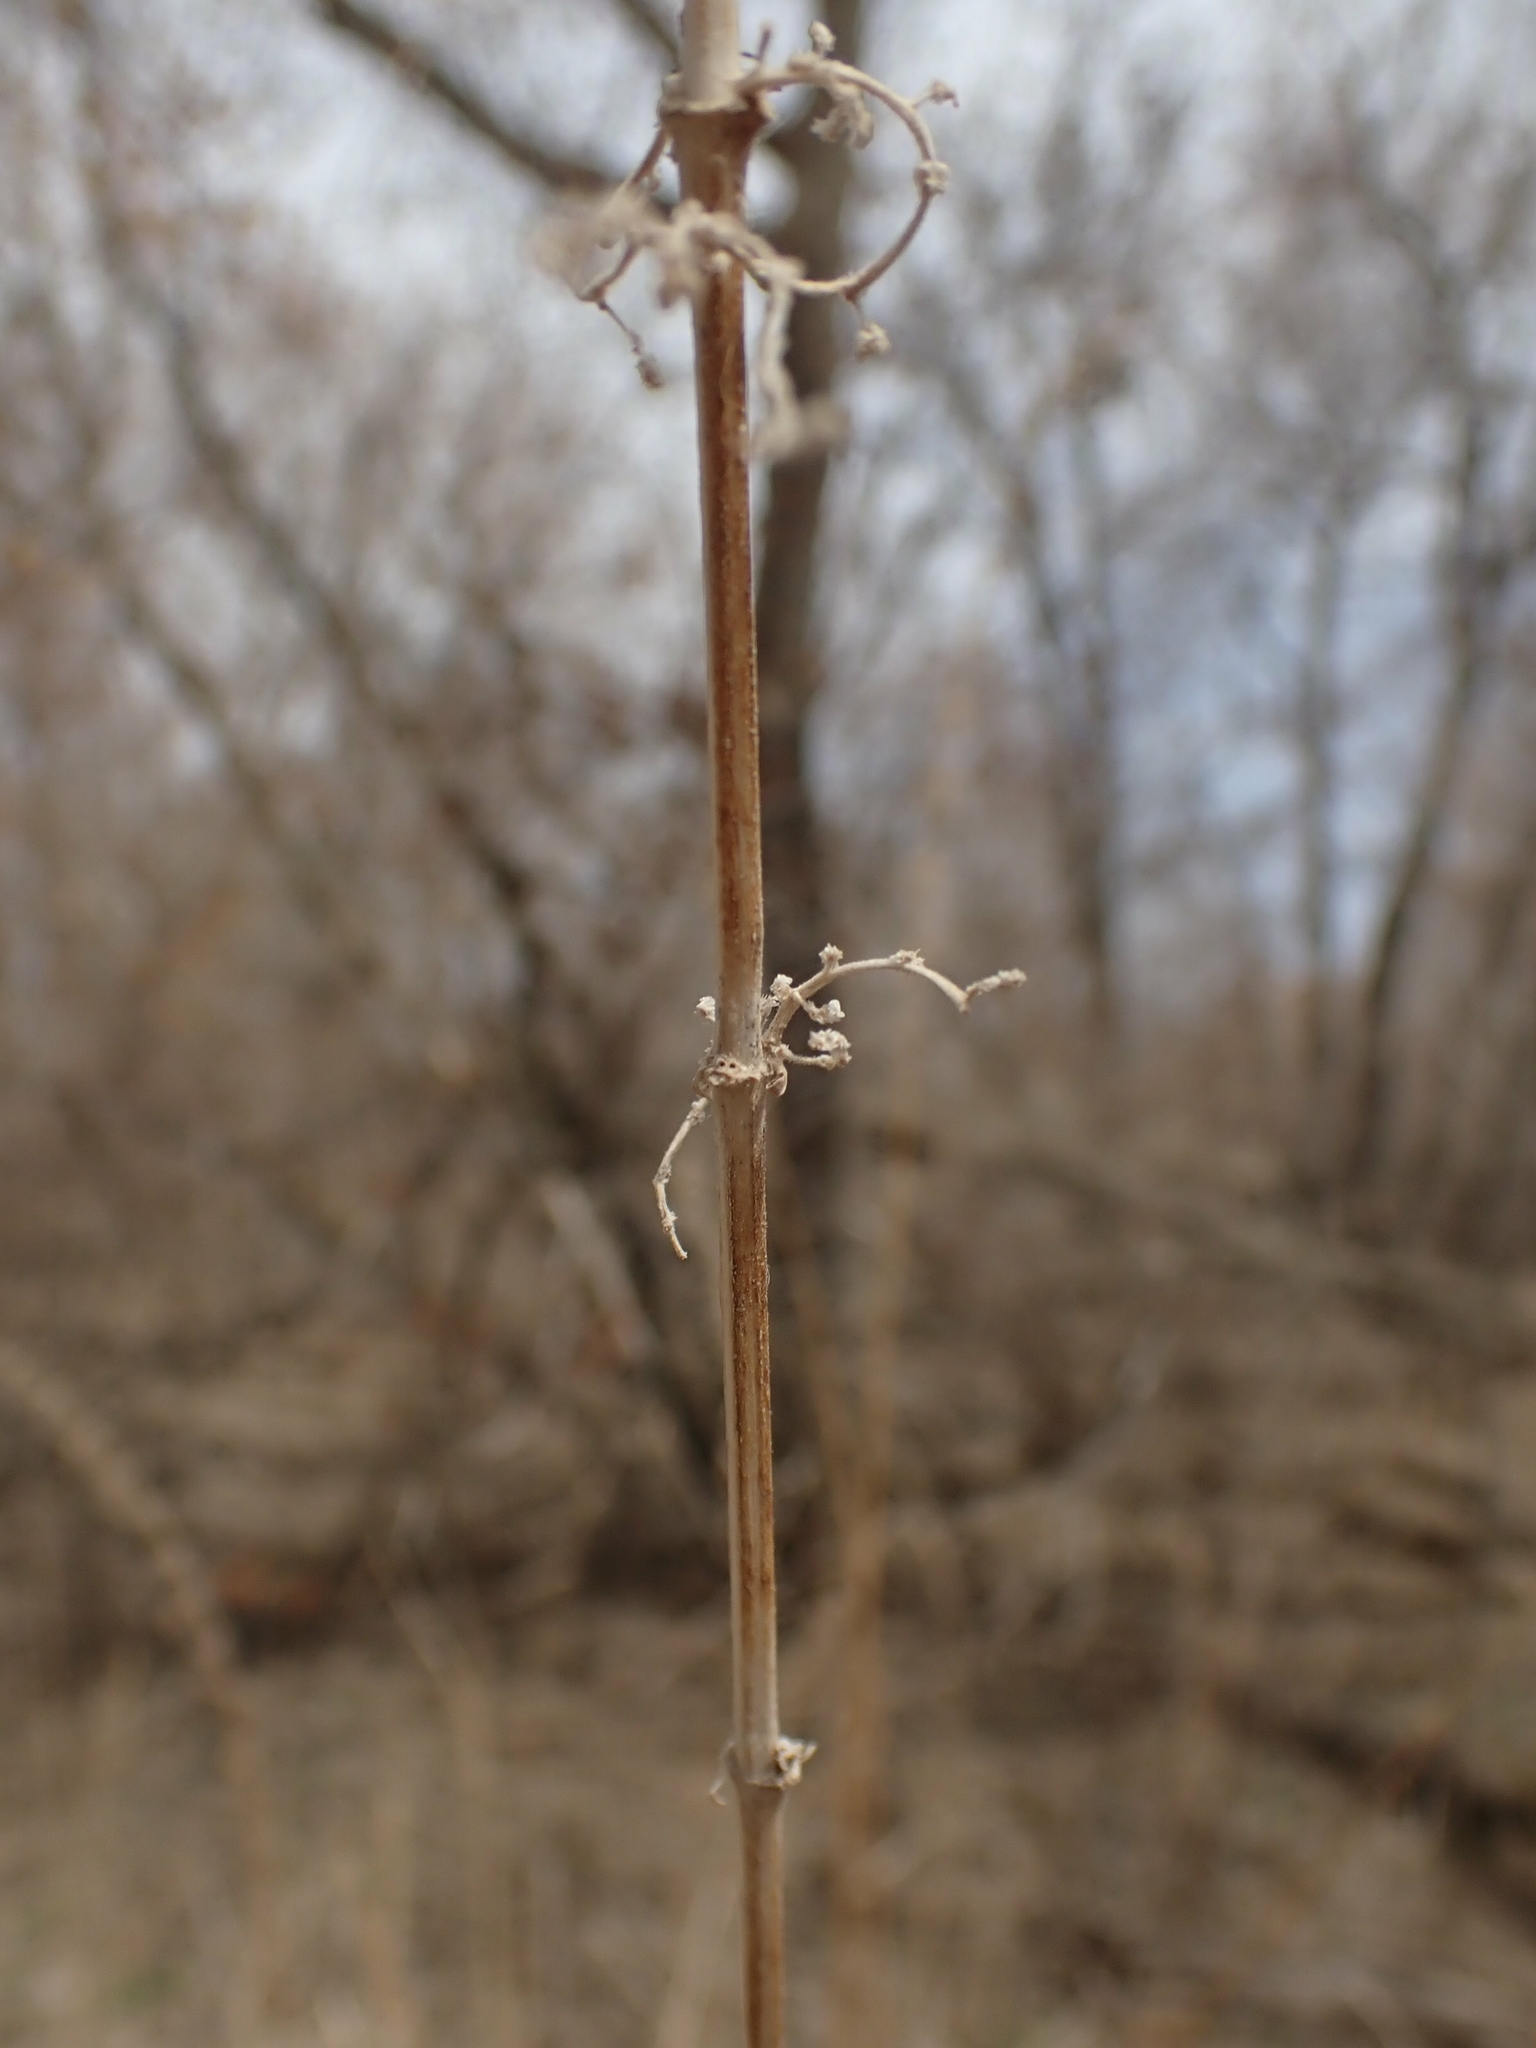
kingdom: Plantae
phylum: Tracheophyta
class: Magnoliopsida
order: Rosales
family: Urticaceae
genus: Urtica
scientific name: Urtica gracilis
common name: Slender stinging nettle
